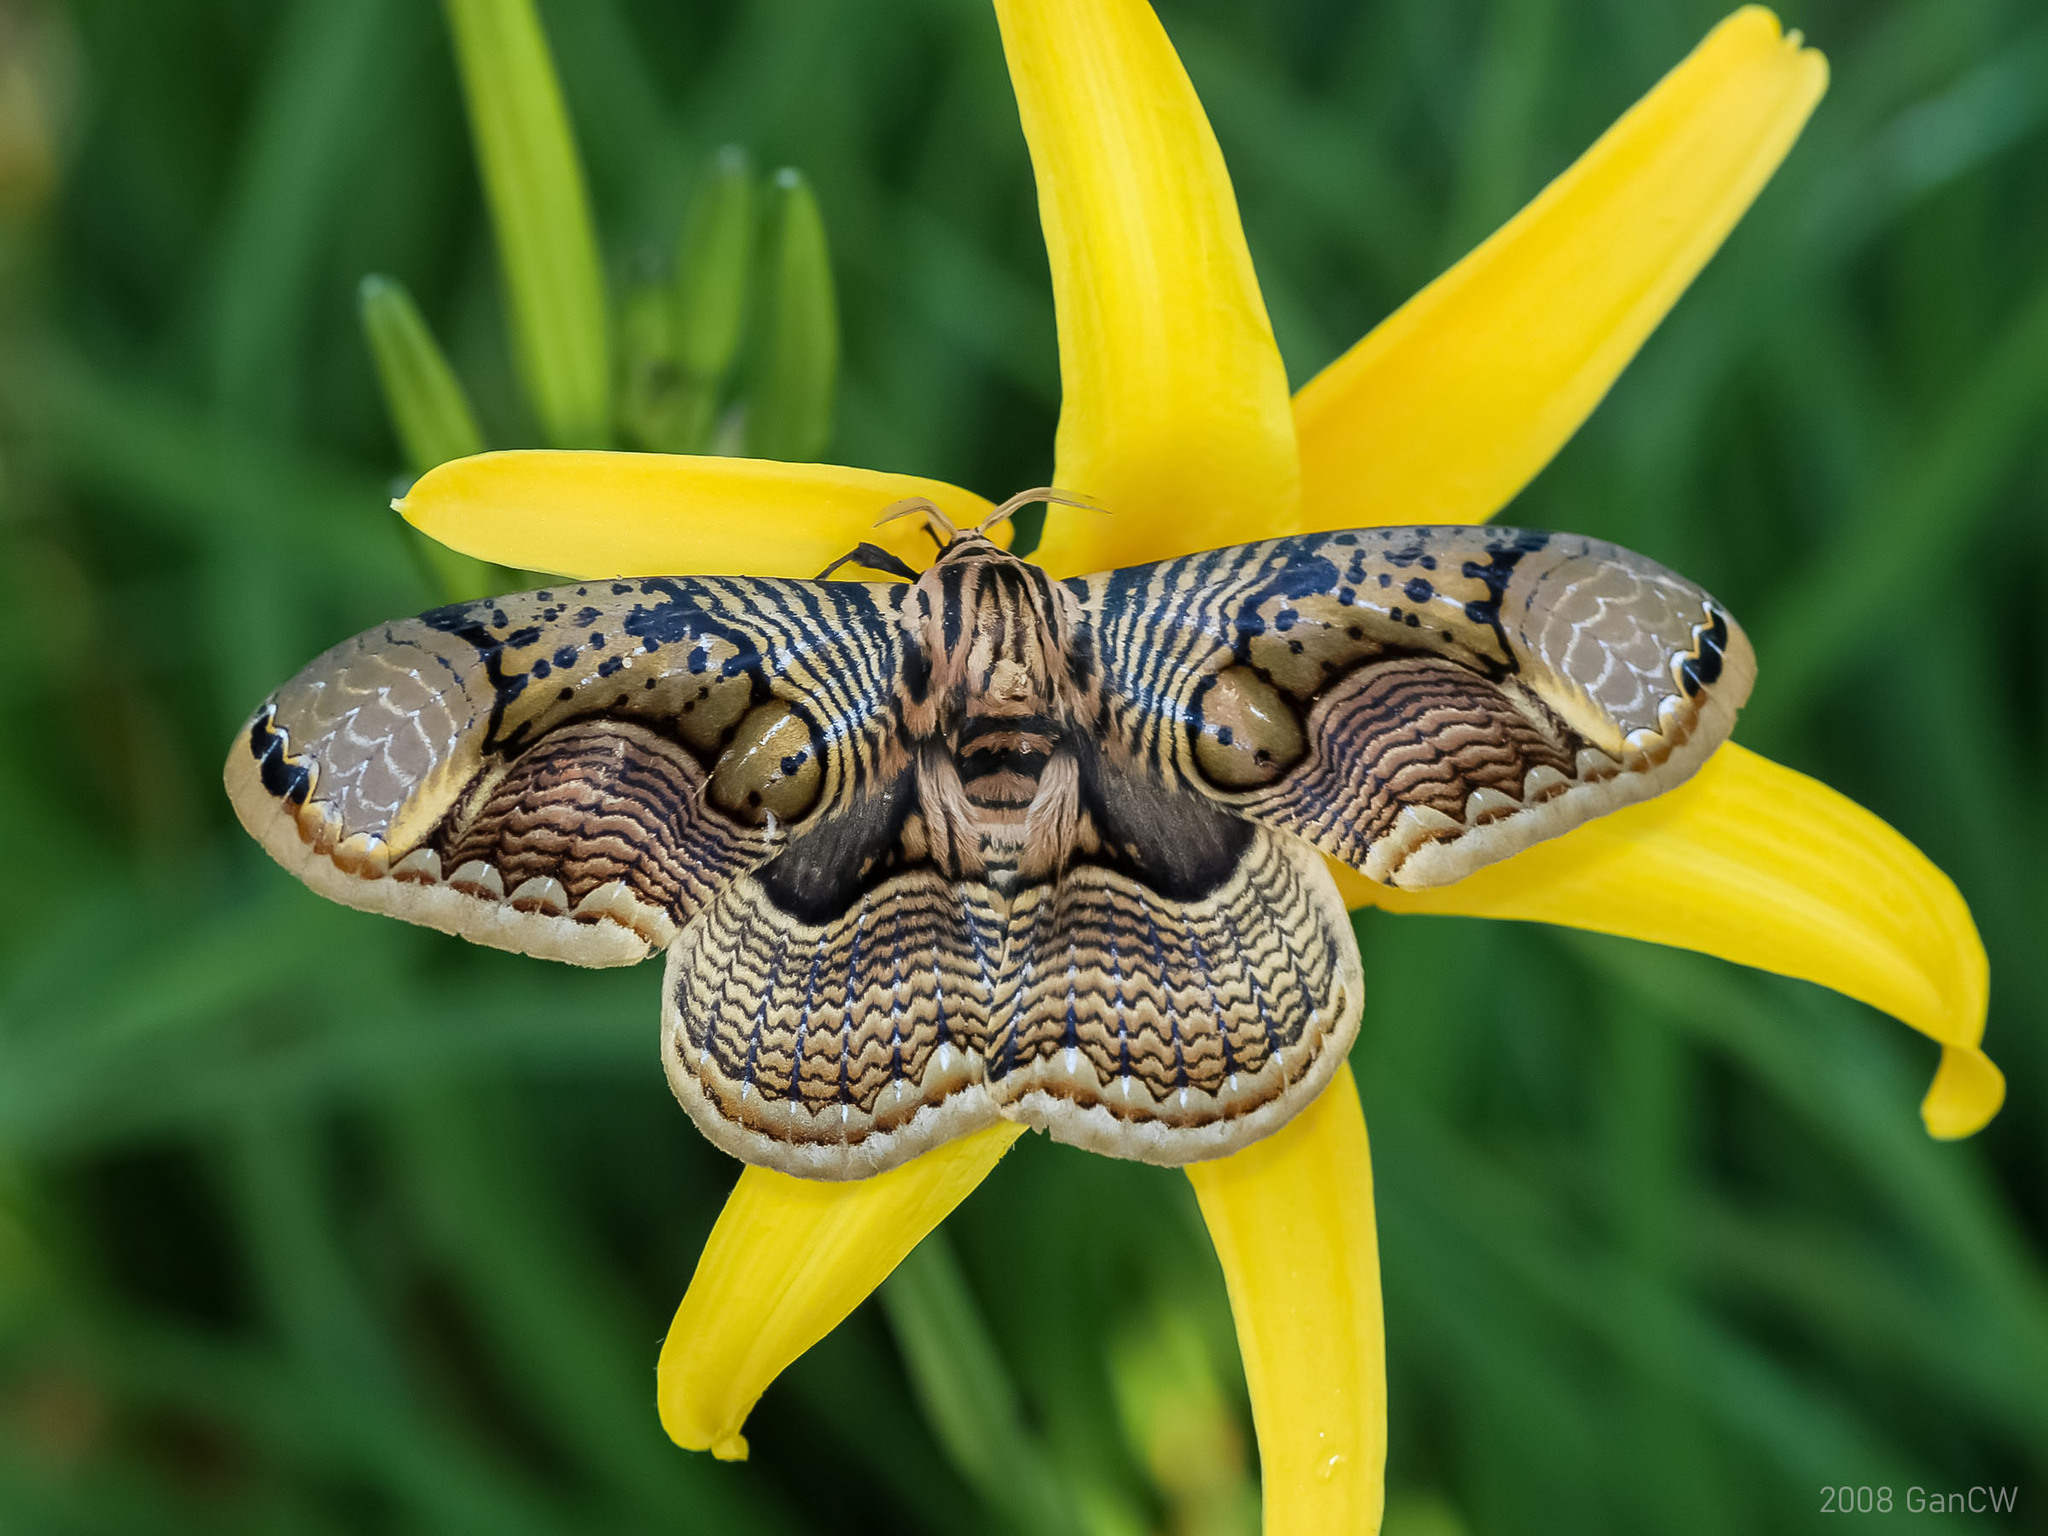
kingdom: Animalia
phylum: Arthropoda
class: Insecta
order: Lepidoptera
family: Brahmaeidae
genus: Brahmaea
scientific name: Brahmaea hearseyi
